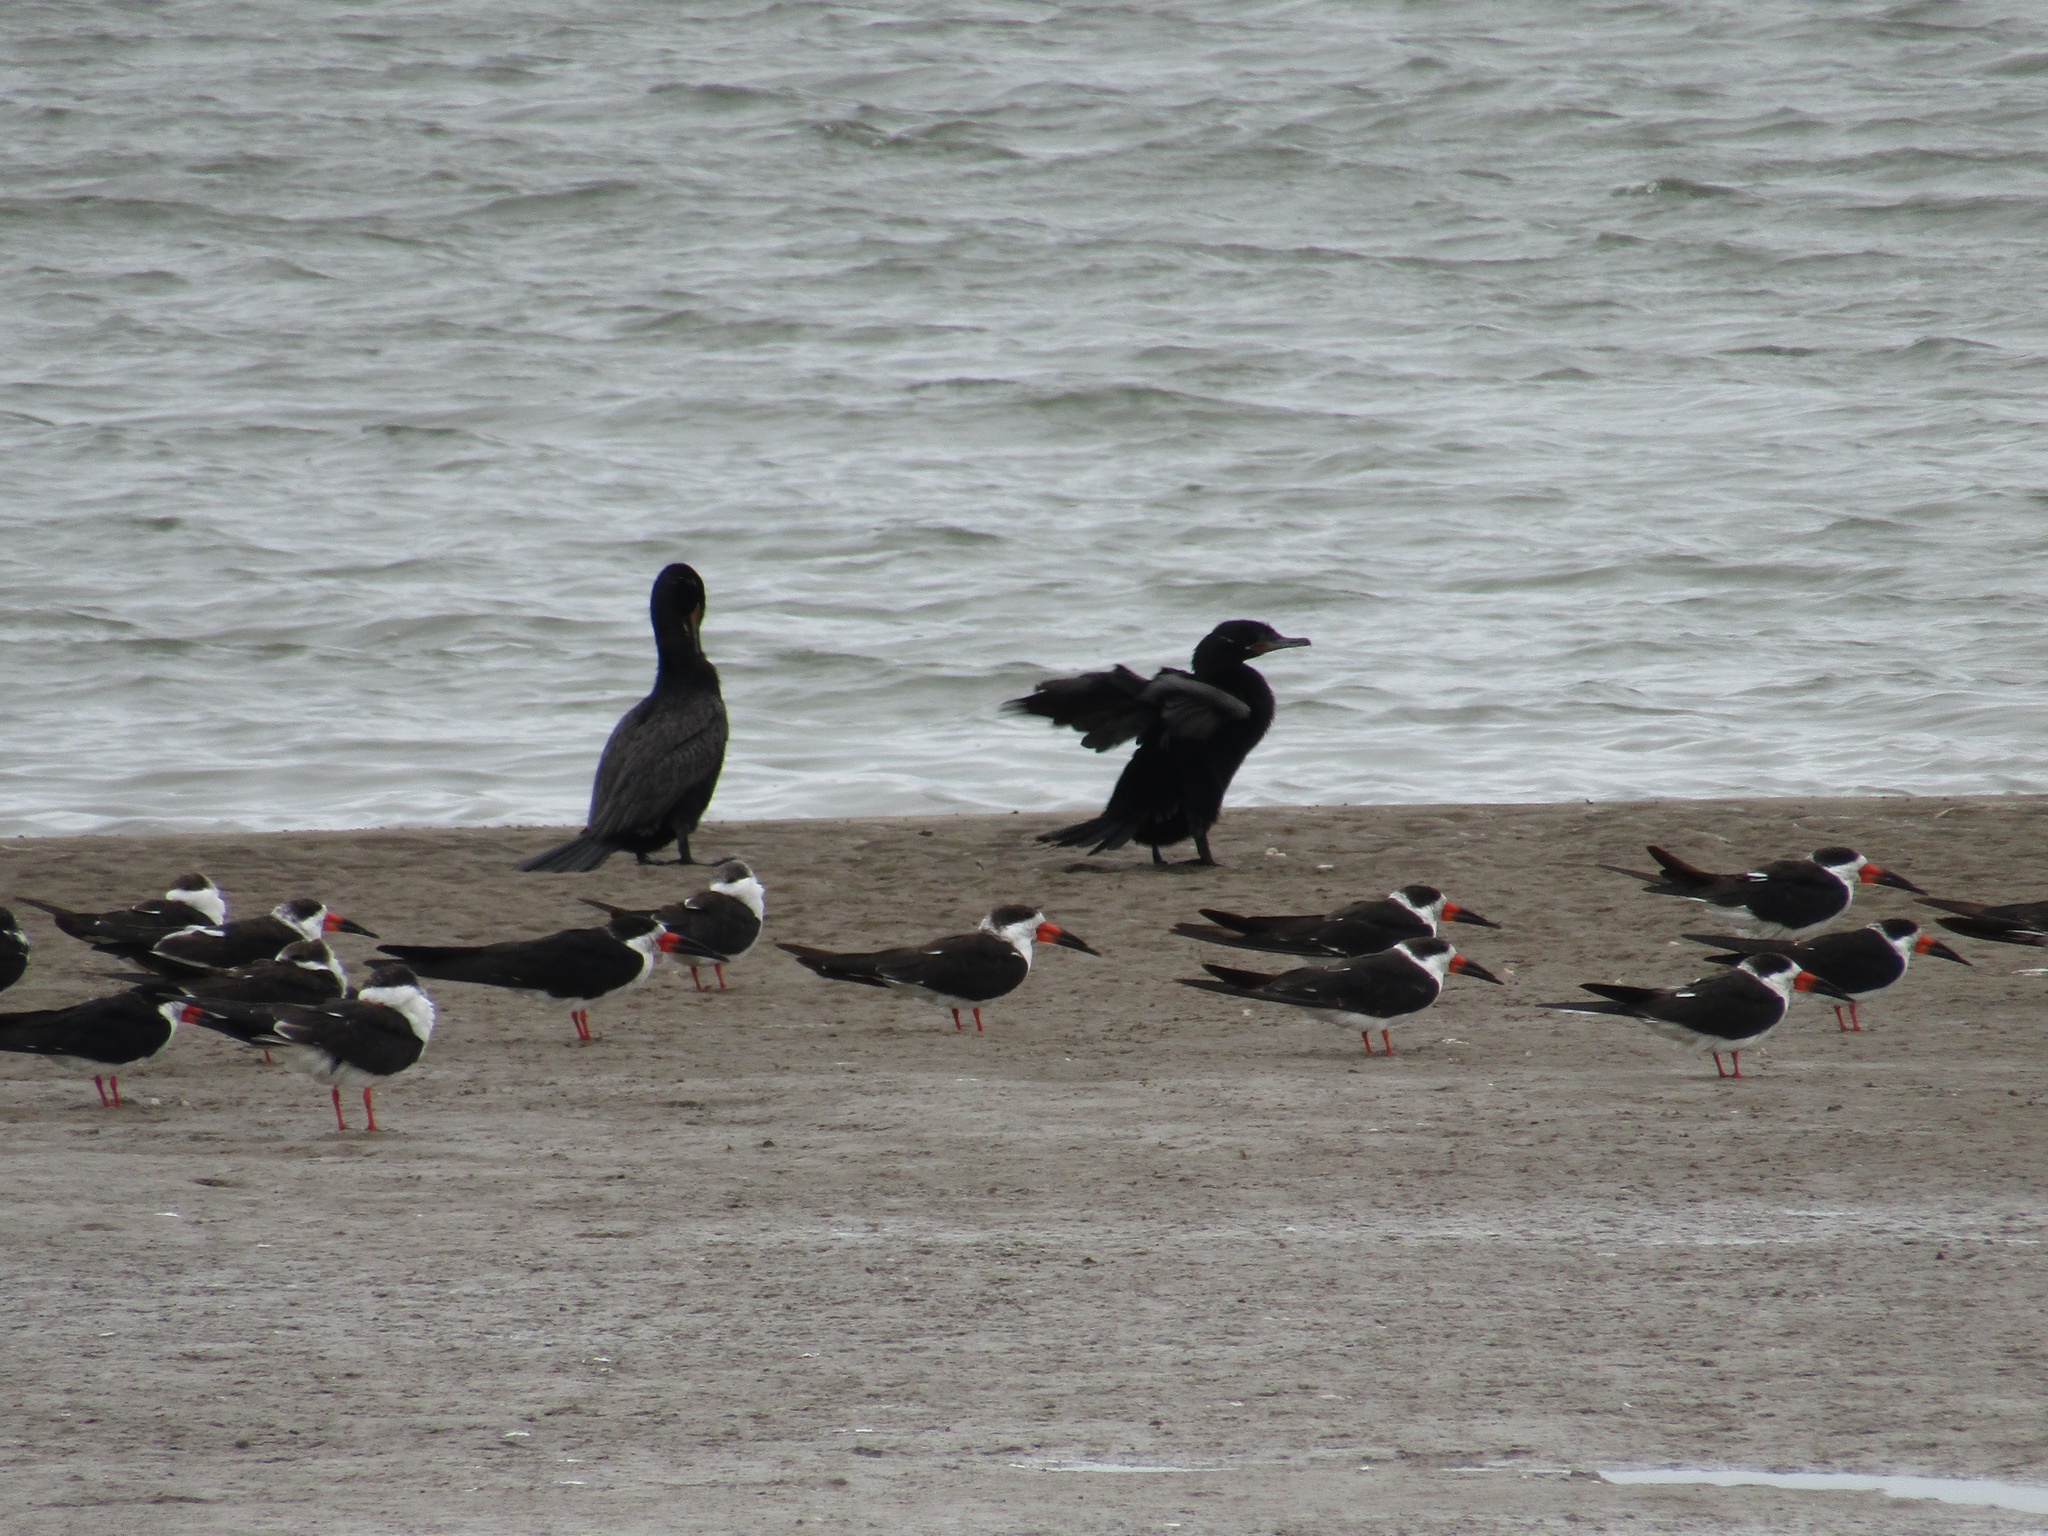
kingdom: Animalia
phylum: Chordata
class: Aves
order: Suliformes
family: Phalacrocoracidae
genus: Phalacrocorax
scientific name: Phalacrocorax brasilianus
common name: Neotropic cormorant
